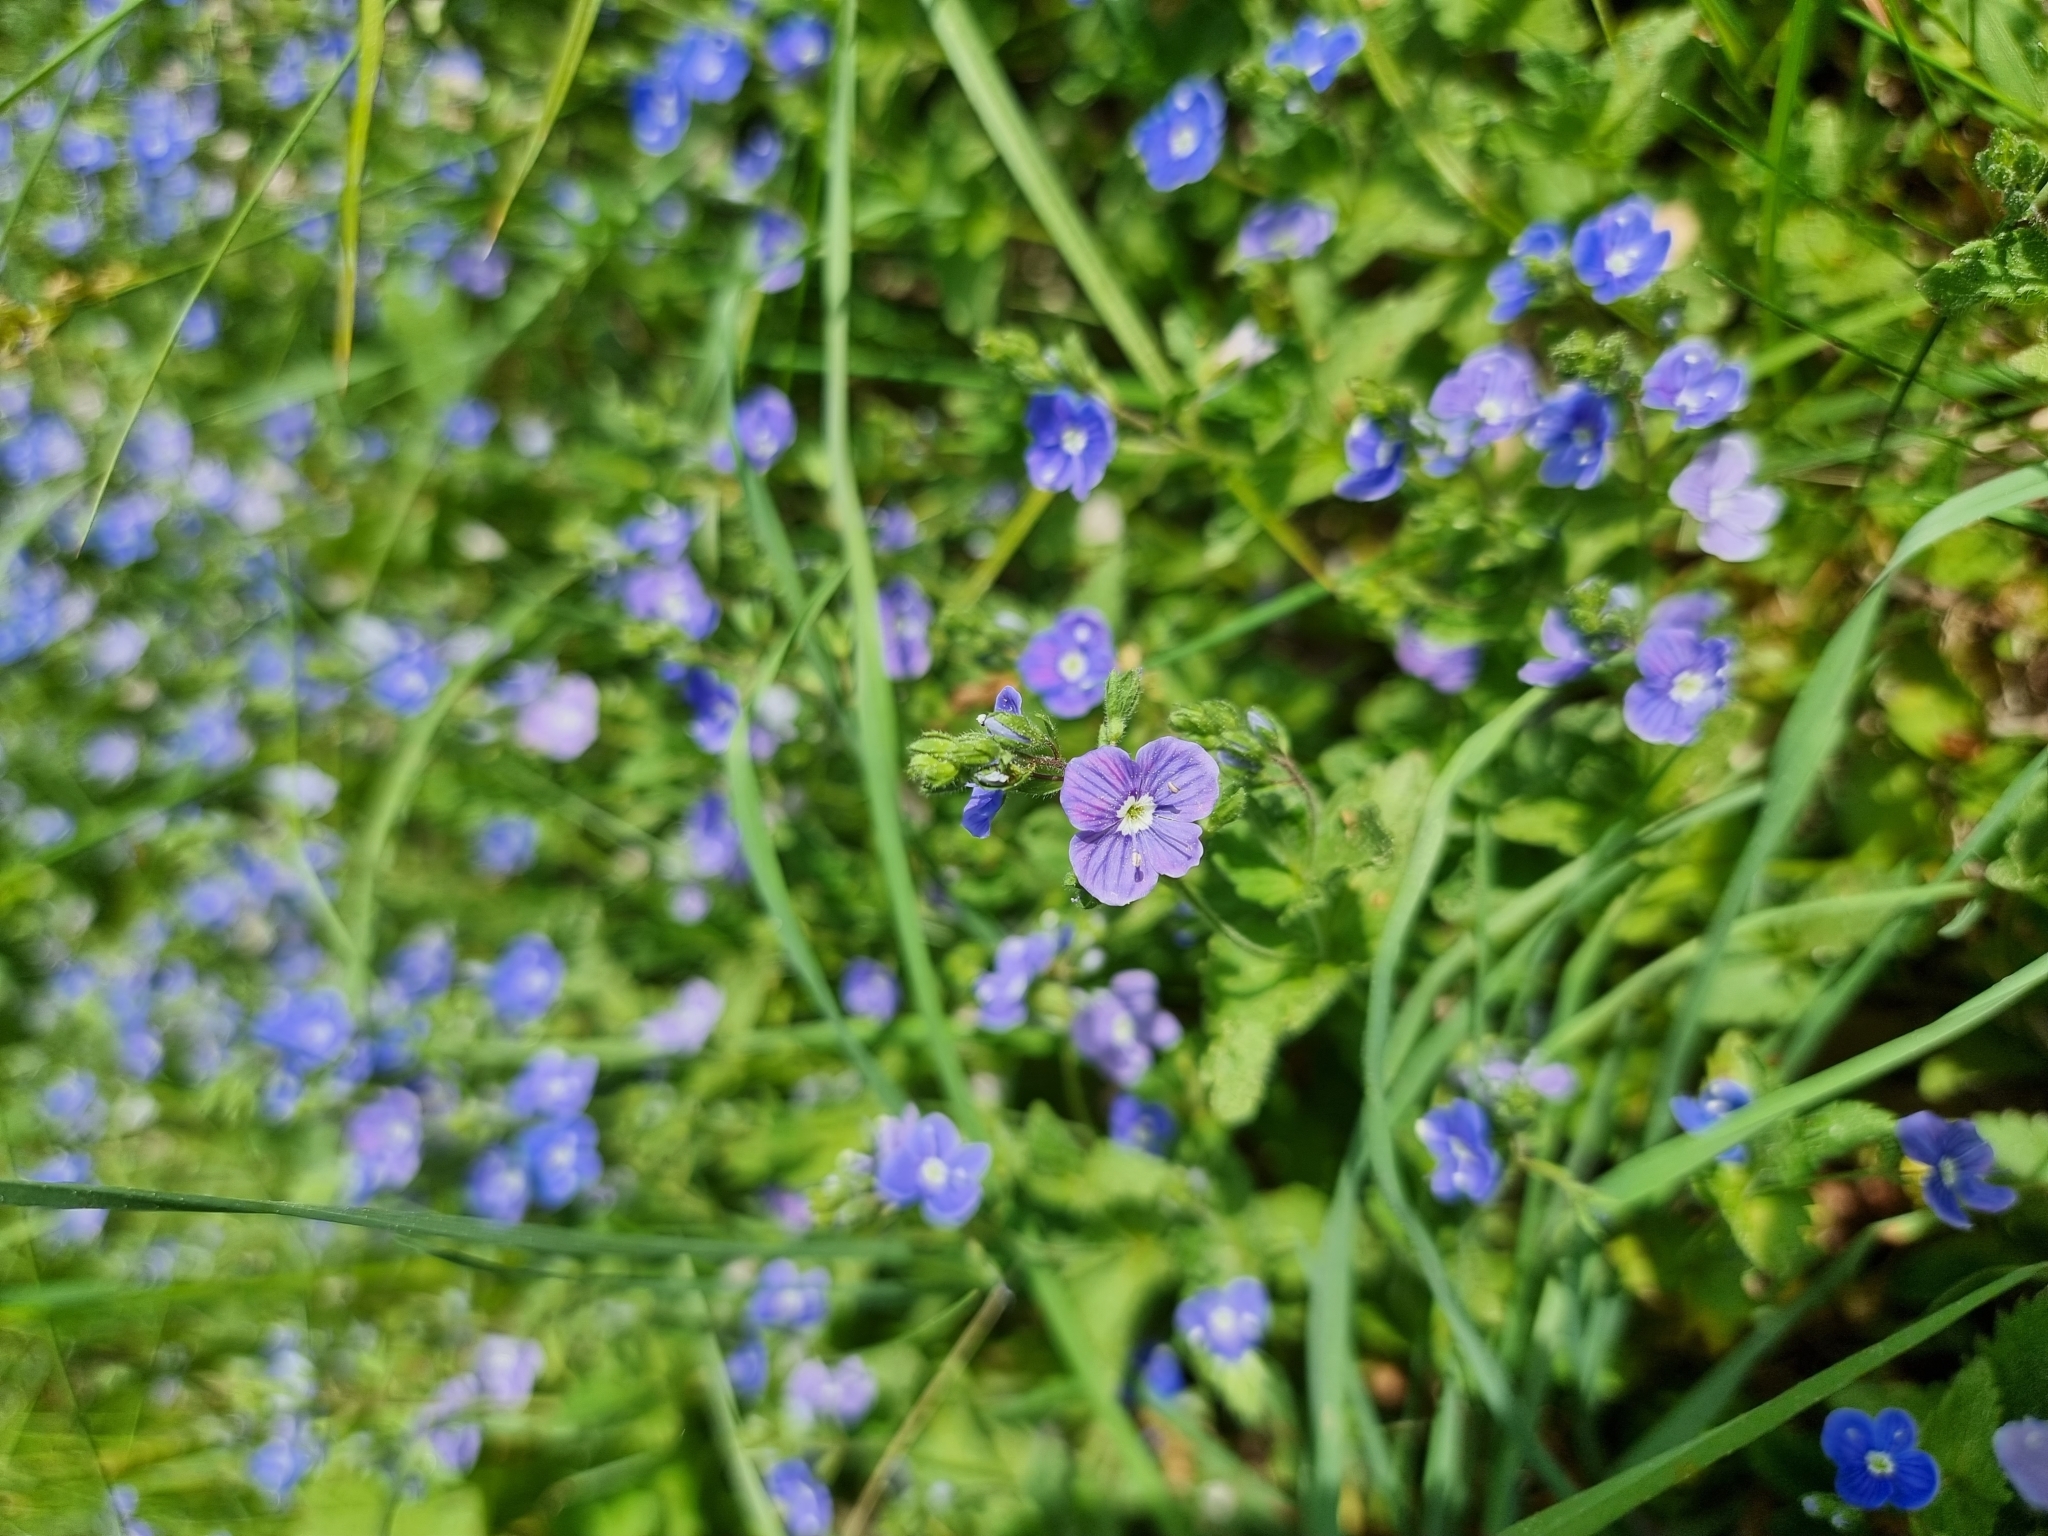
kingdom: Plantae
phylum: Tracheophyta
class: Magnoliopsida
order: Lamiales
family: Plantaginaceae
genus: Veronica
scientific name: Veronica chamaedrys
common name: Germander speedwell
